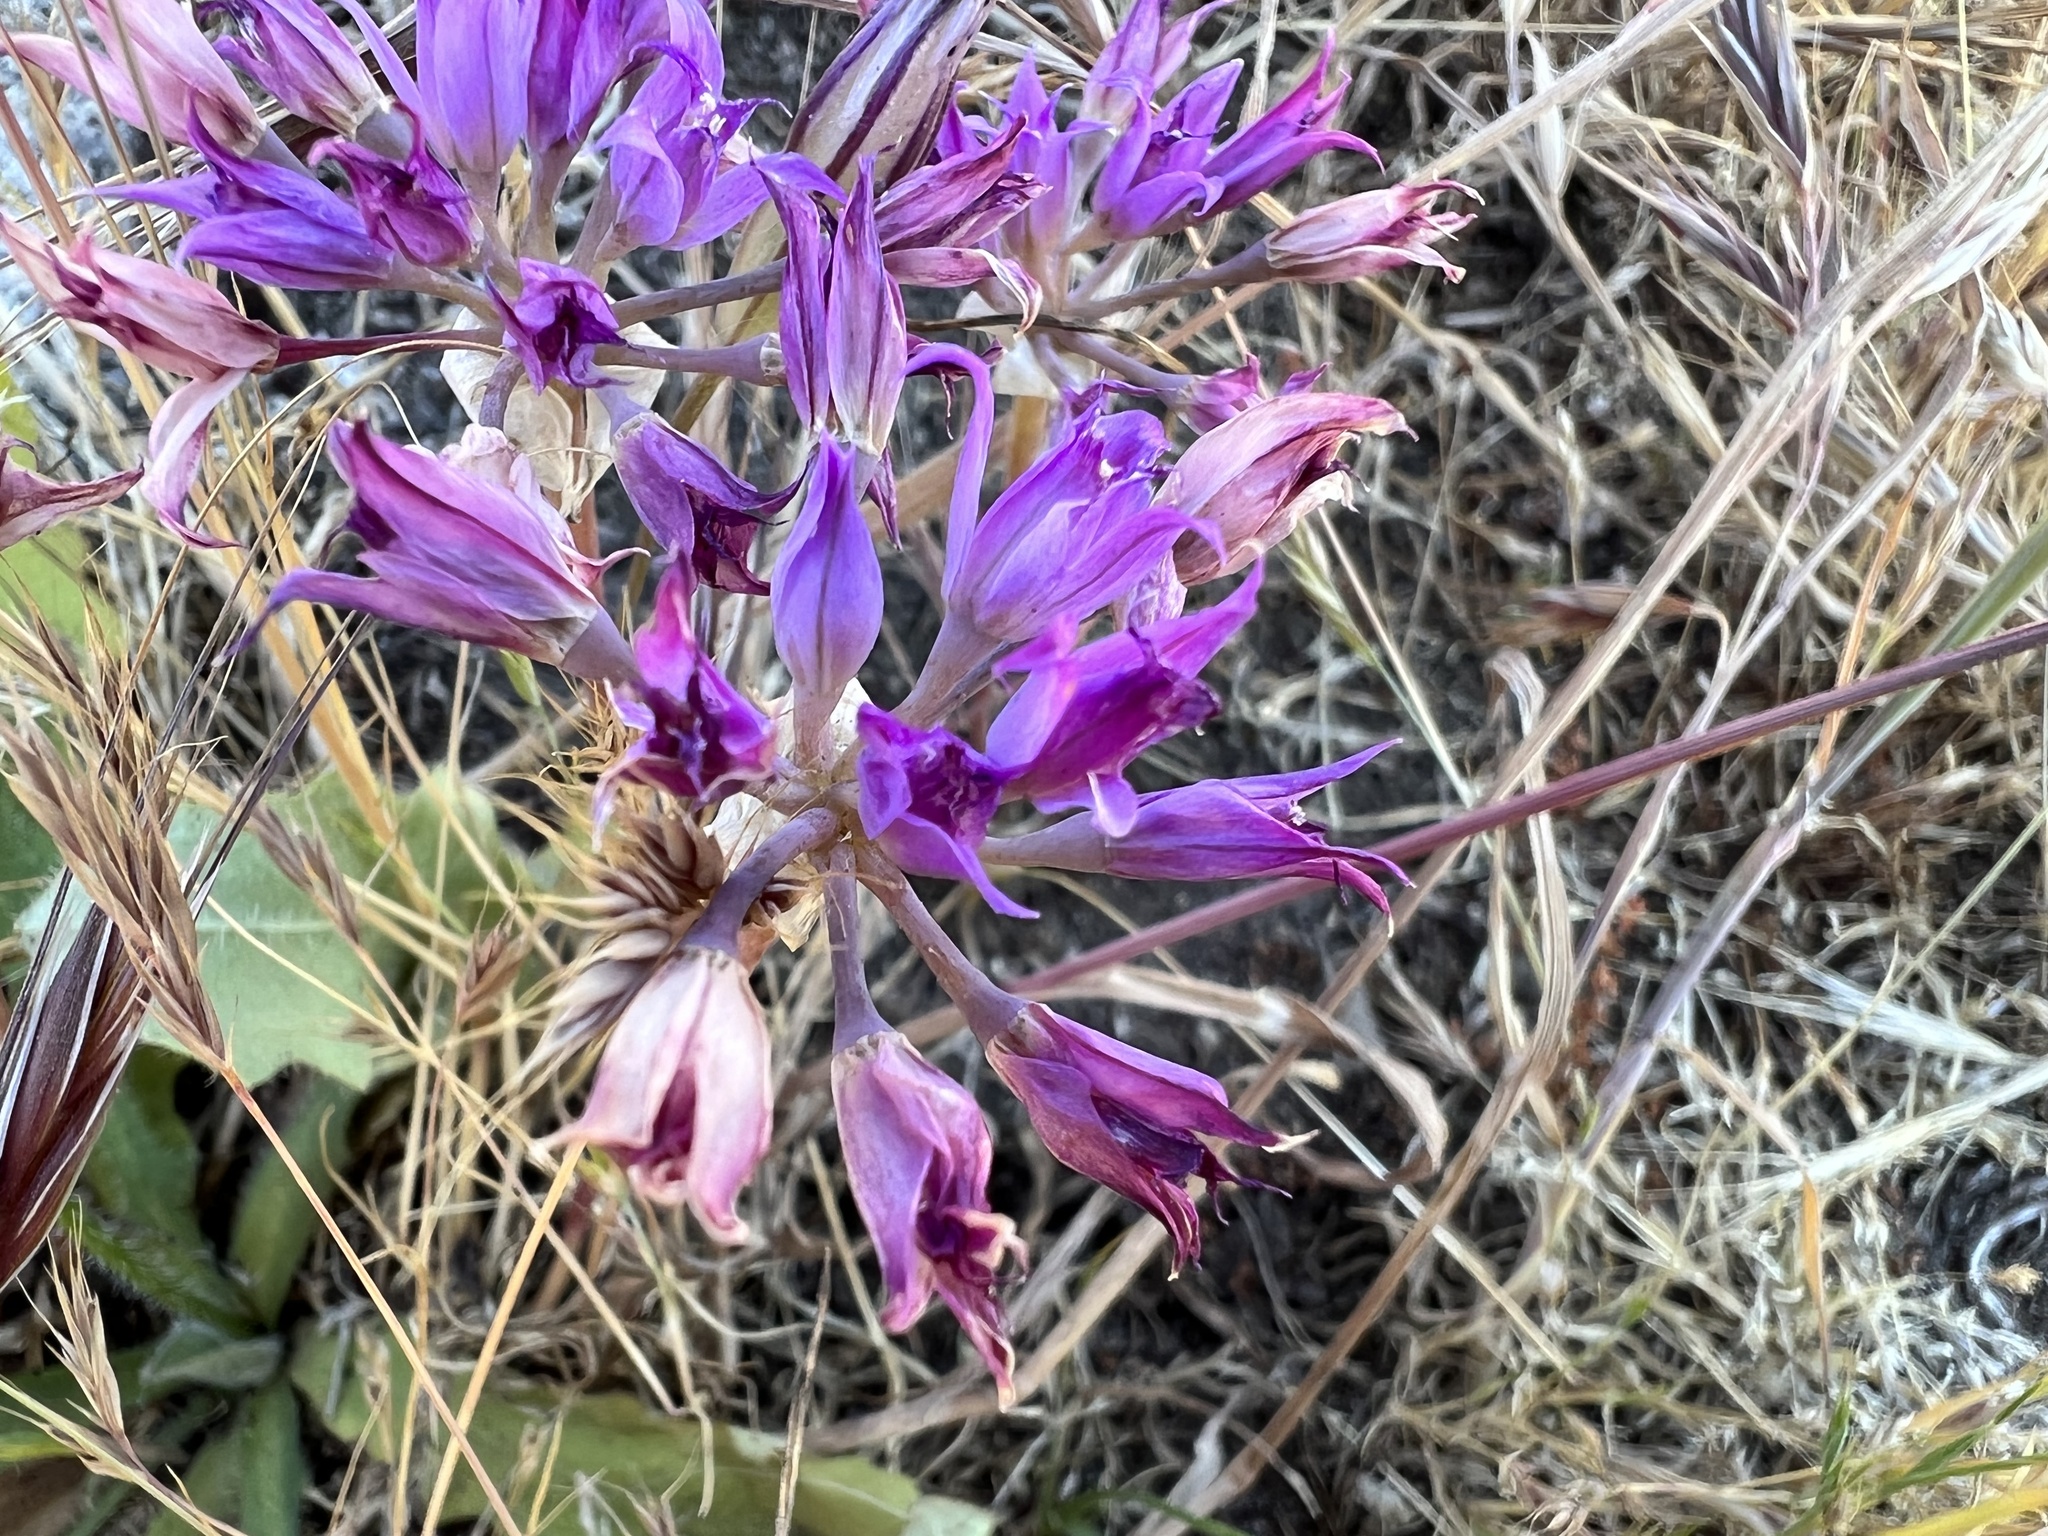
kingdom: Plantae
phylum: Tracheophyta
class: Liliopsida
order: Asparagales
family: Amaryllidaceae
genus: Allium
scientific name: Allium acuminatum
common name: Hooker's onion
